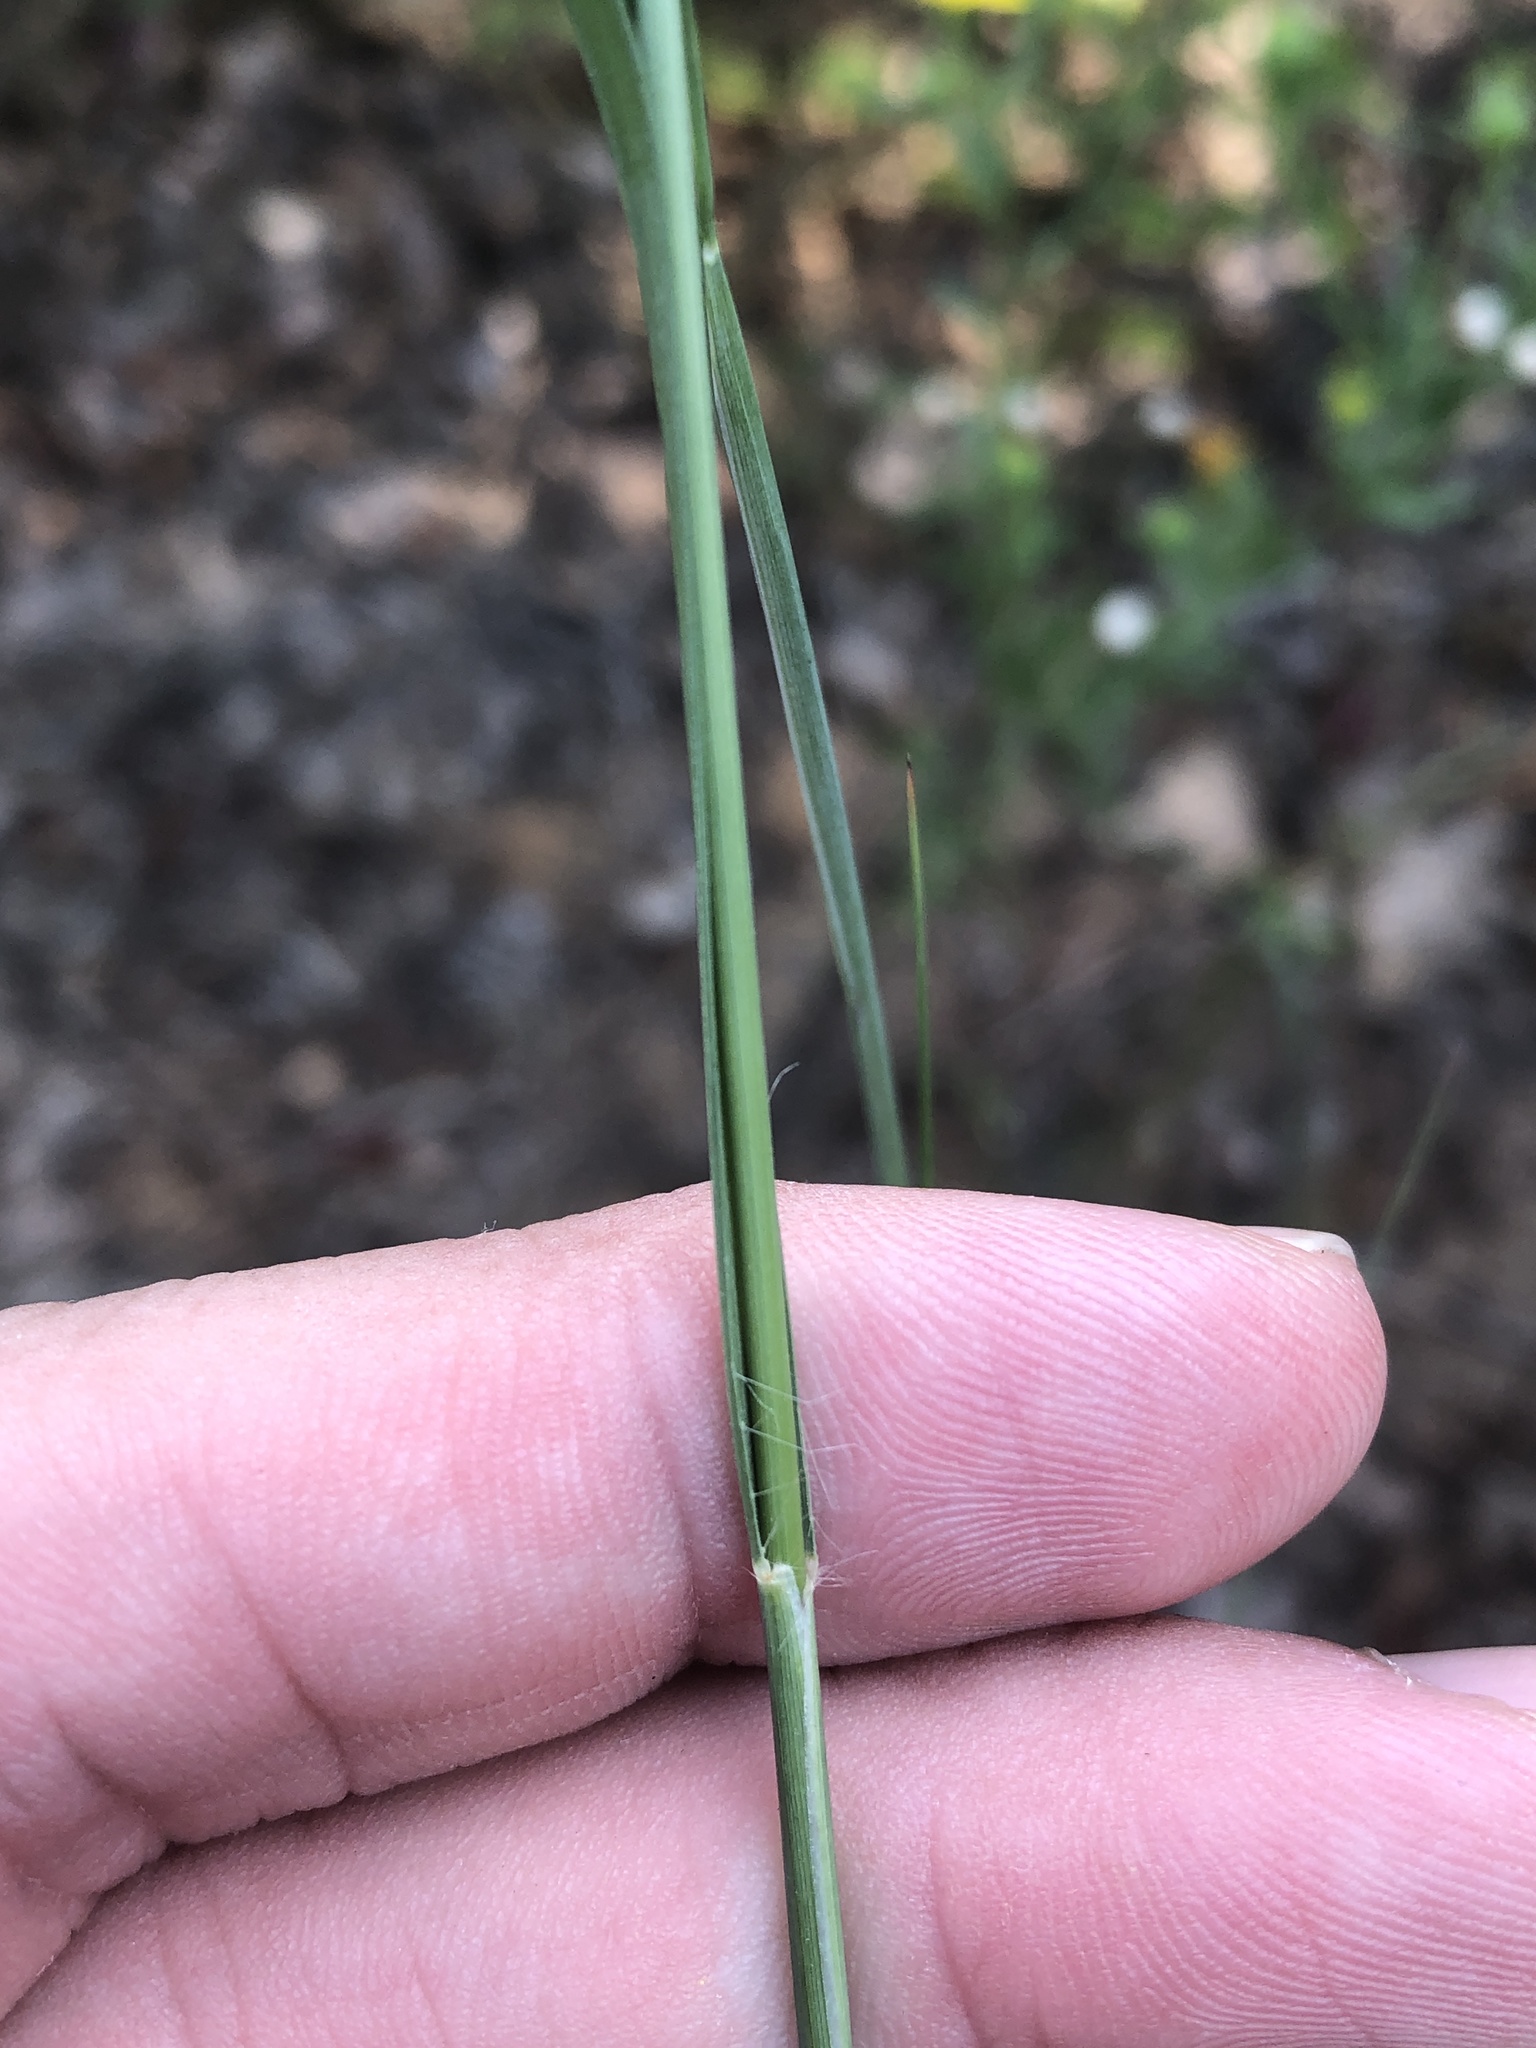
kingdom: Plantae
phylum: Tracheophyta
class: Liliopsida
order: Poales
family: Poaceae
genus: Sporobolus
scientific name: Sporobolus compositus
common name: Rough dropseed
